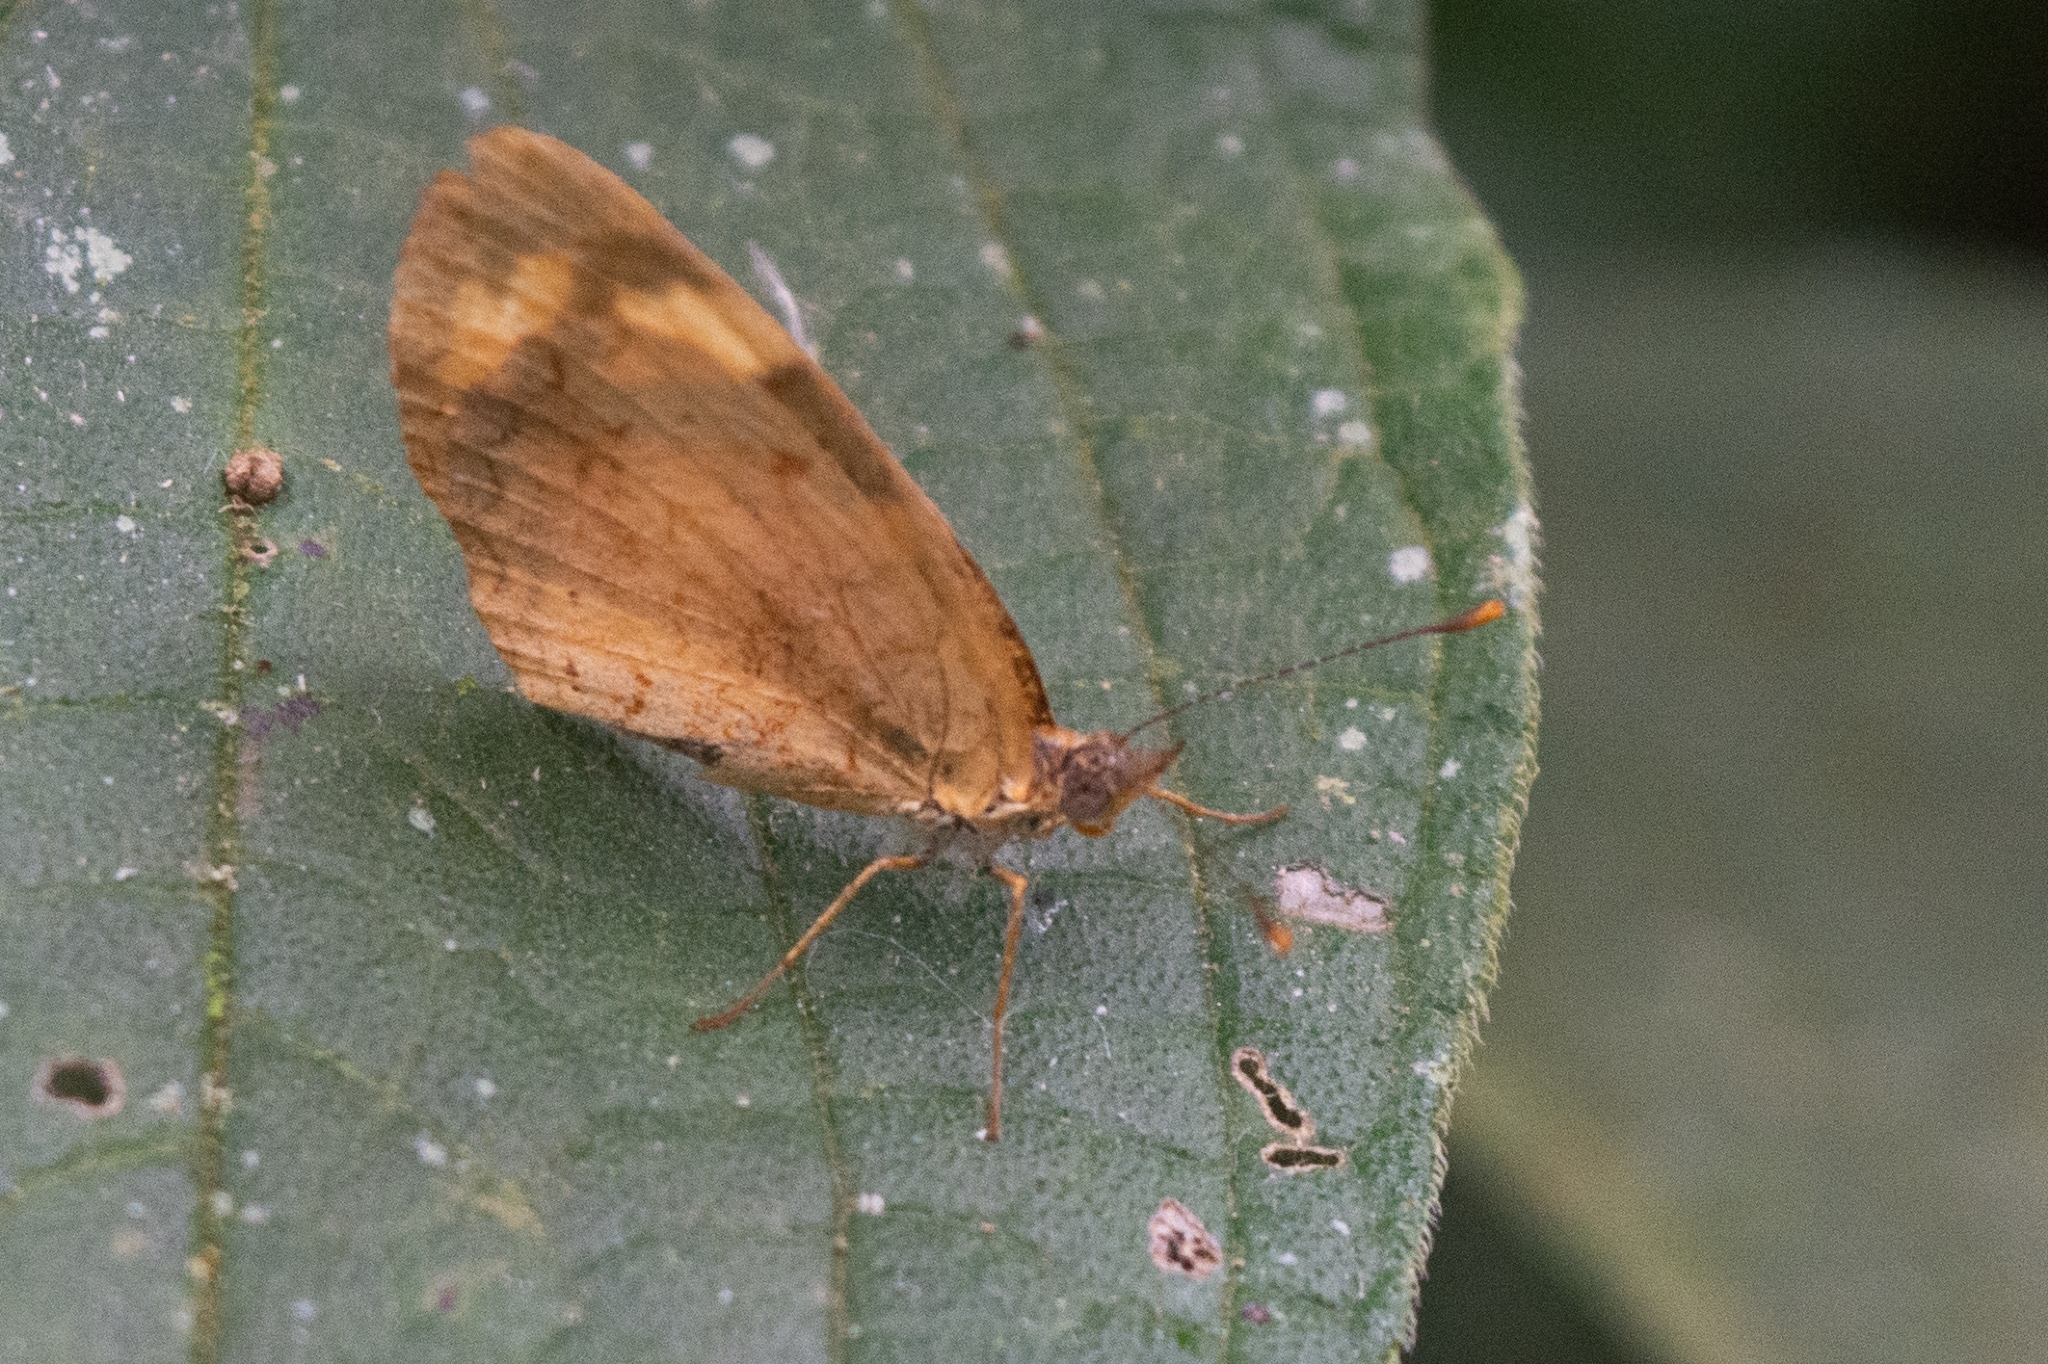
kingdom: Animalia
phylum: Arthropoda
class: Insecta
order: Lepidoptera
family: Nymphalidae
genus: Tegosa
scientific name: Tegosa claudina
